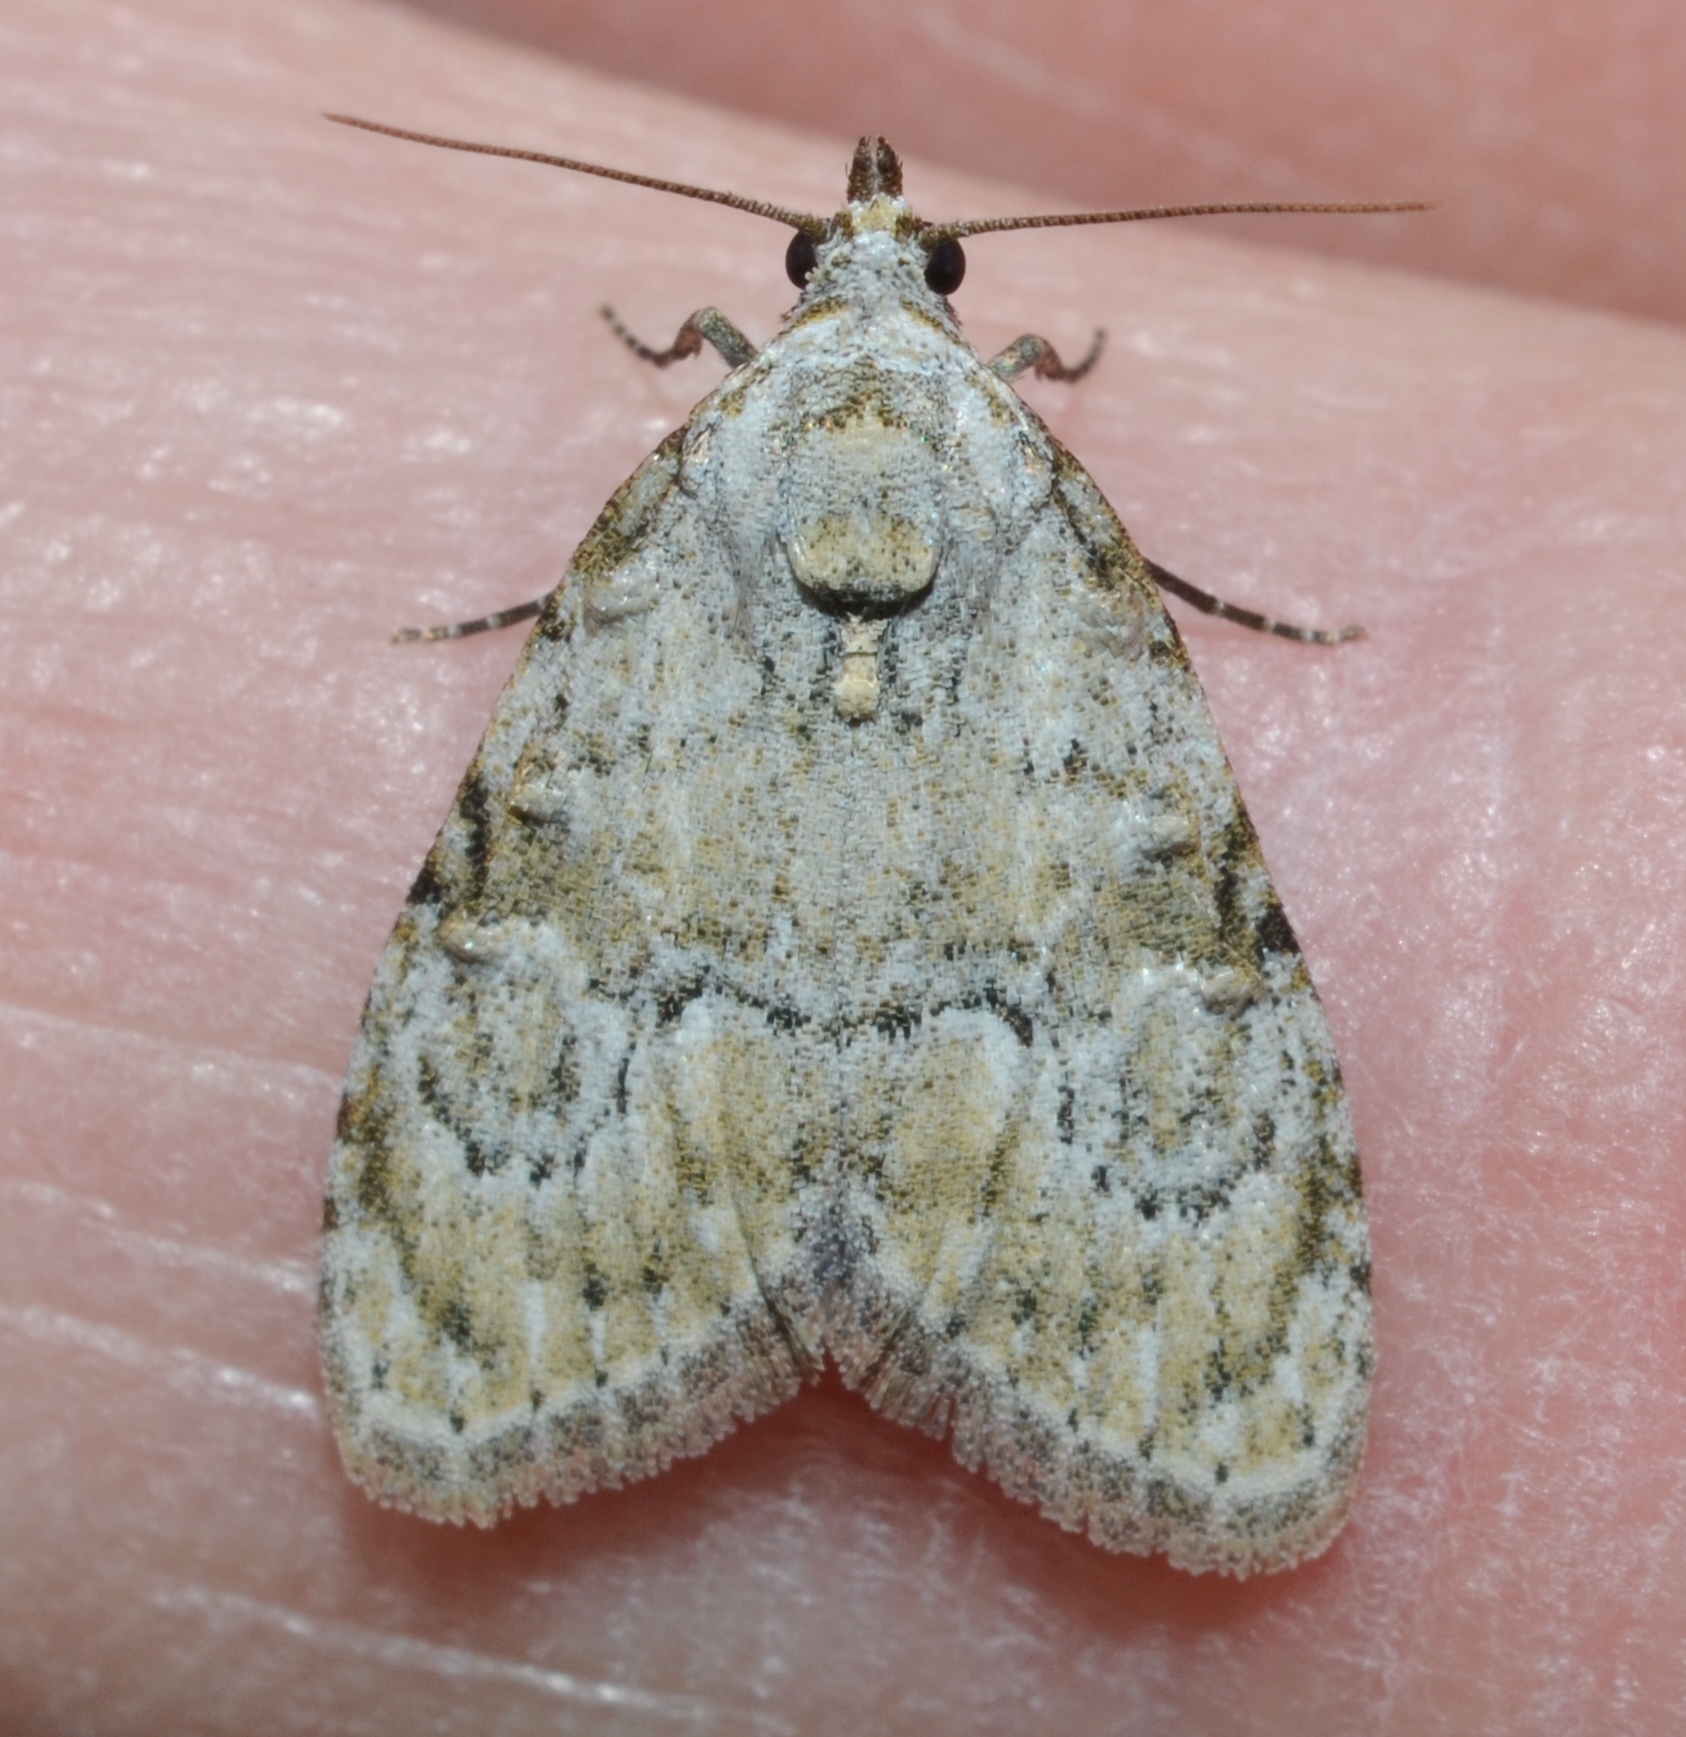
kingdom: Animalia
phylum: Arthropoda
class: Insecta
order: Lepidoptera
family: Nolidae
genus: Meganola
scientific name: Meganola minuscula
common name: Confused meganola moth
